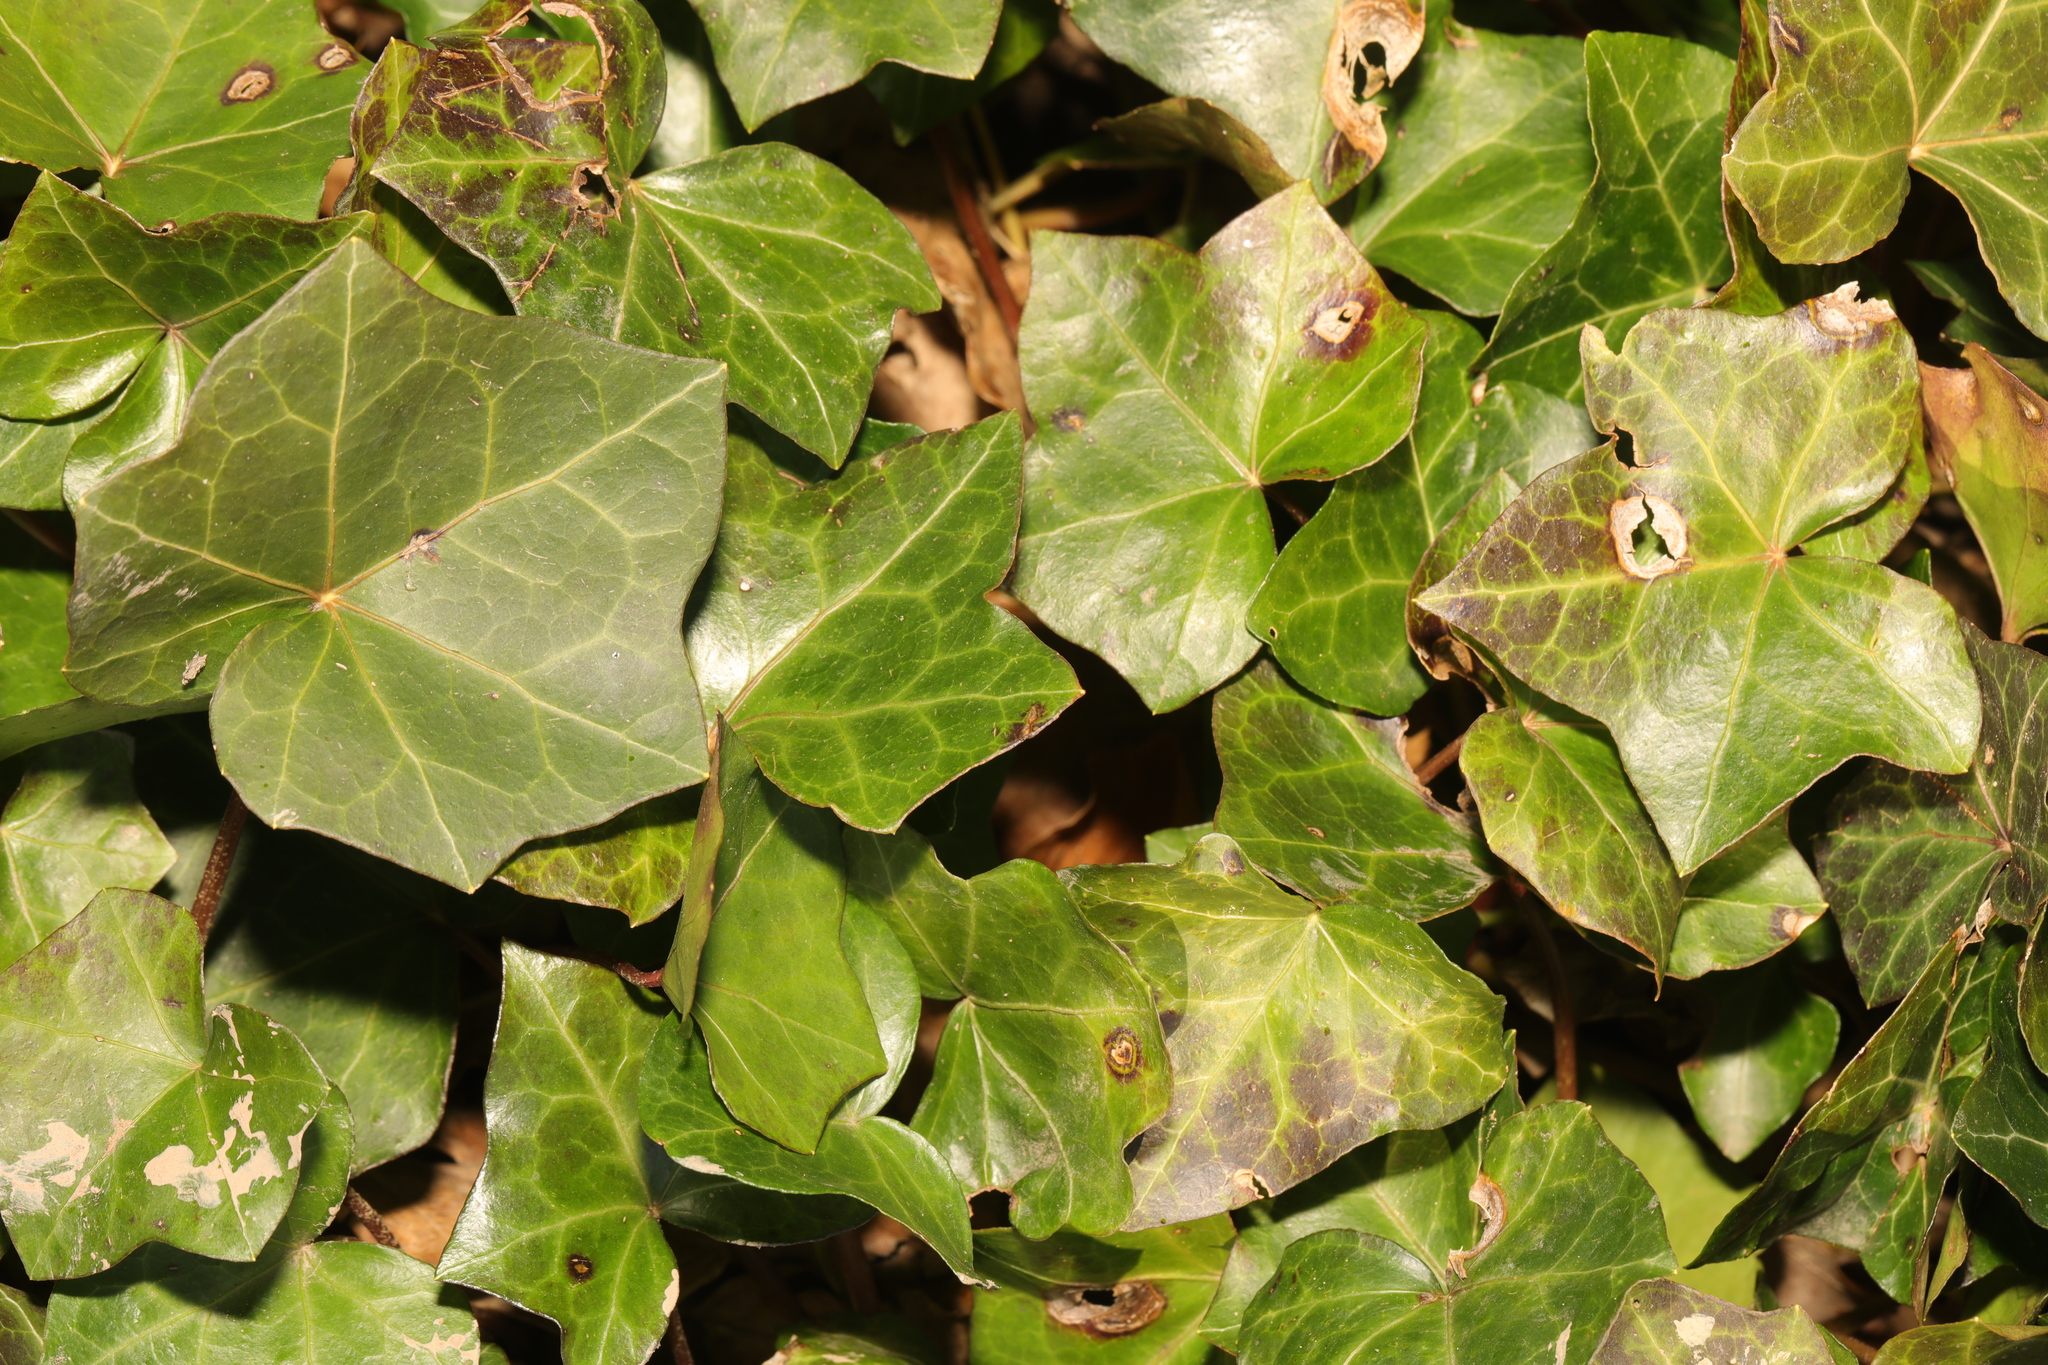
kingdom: Plantae
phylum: Tracheophyta
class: Magnoliopsida
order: Apiales
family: Araliaceae
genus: Hedera
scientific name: Hedera helix
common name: Ivy
